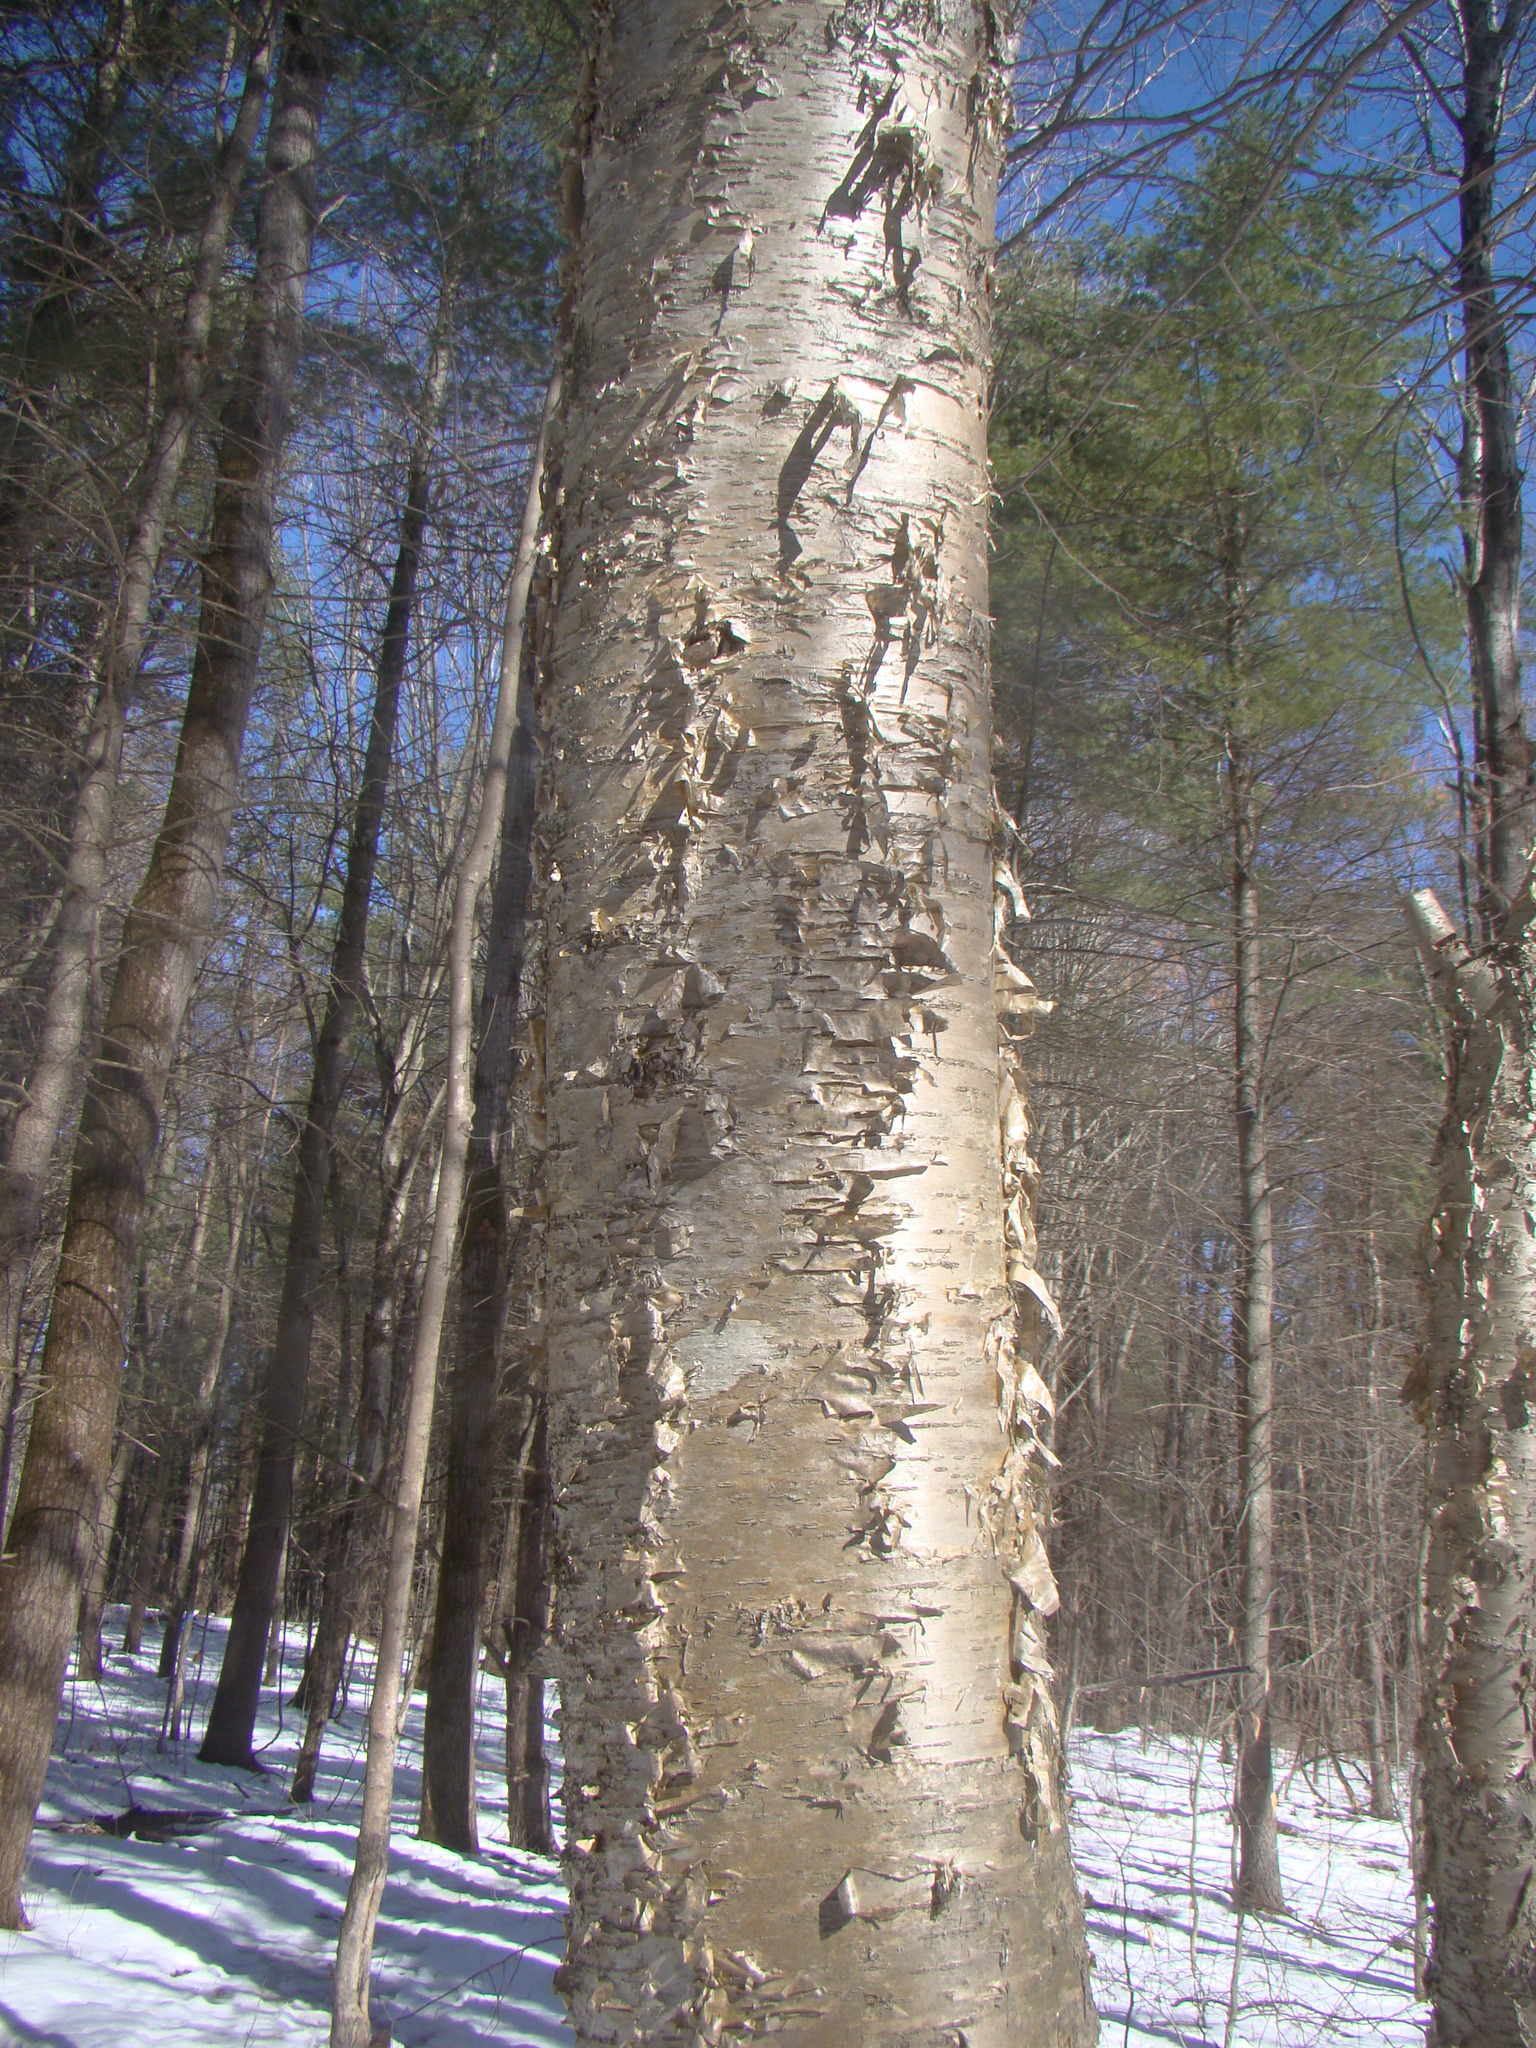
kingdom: Plantae
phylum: Tracheophyta
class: Magnoliopsida
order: Fagales
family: Betulaceae
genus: Betula
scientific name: Betula alleghaniensis
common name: Yellow birch
